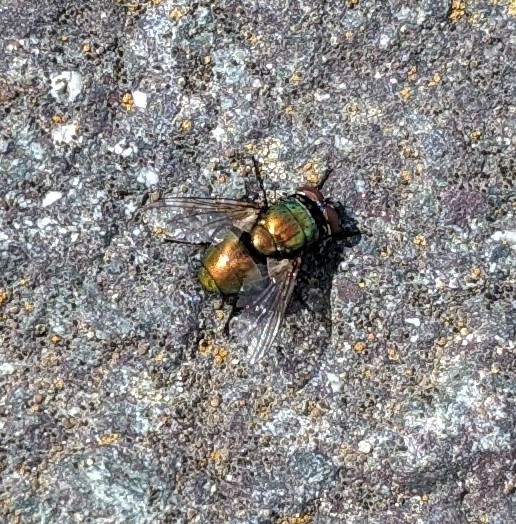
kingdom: Animalia
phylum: Arthropoda
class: Insecta
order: Diptera
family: Calliphoridae
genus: Lucilia
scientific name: Lucilia sericata
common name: Blow fly
